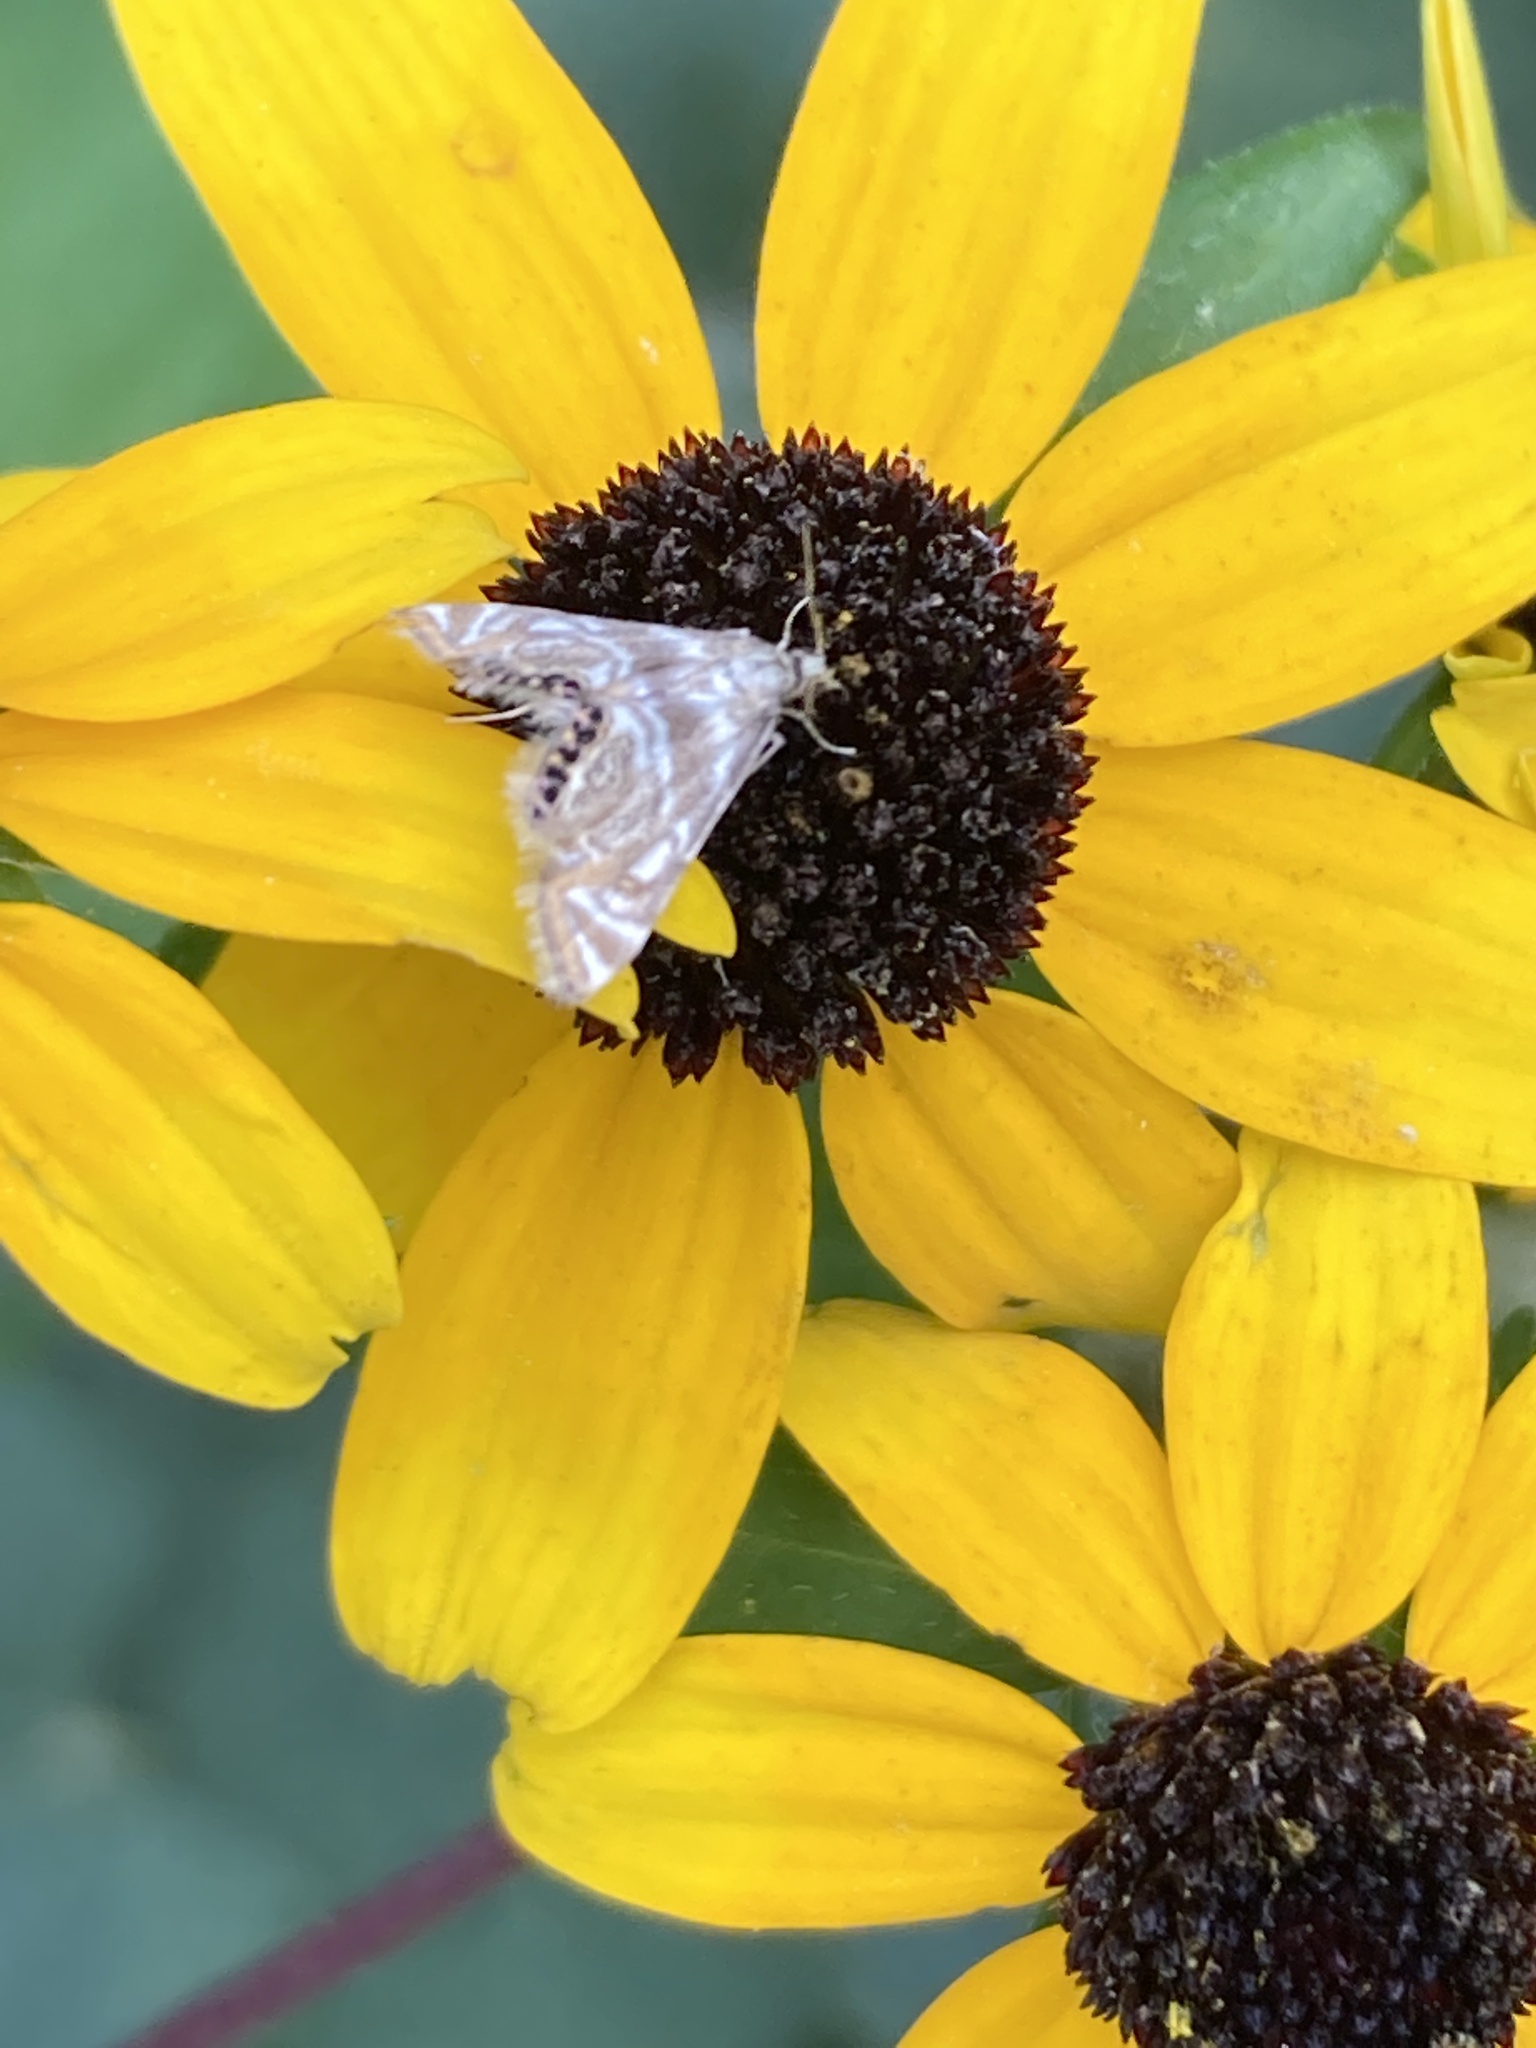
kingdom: Animalia
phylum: Arthropoda
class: Insecta
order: Lepidoptera
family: Crambidae
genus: Petrophila
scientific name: Petrophila canadensis
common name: Canadian petrophila
